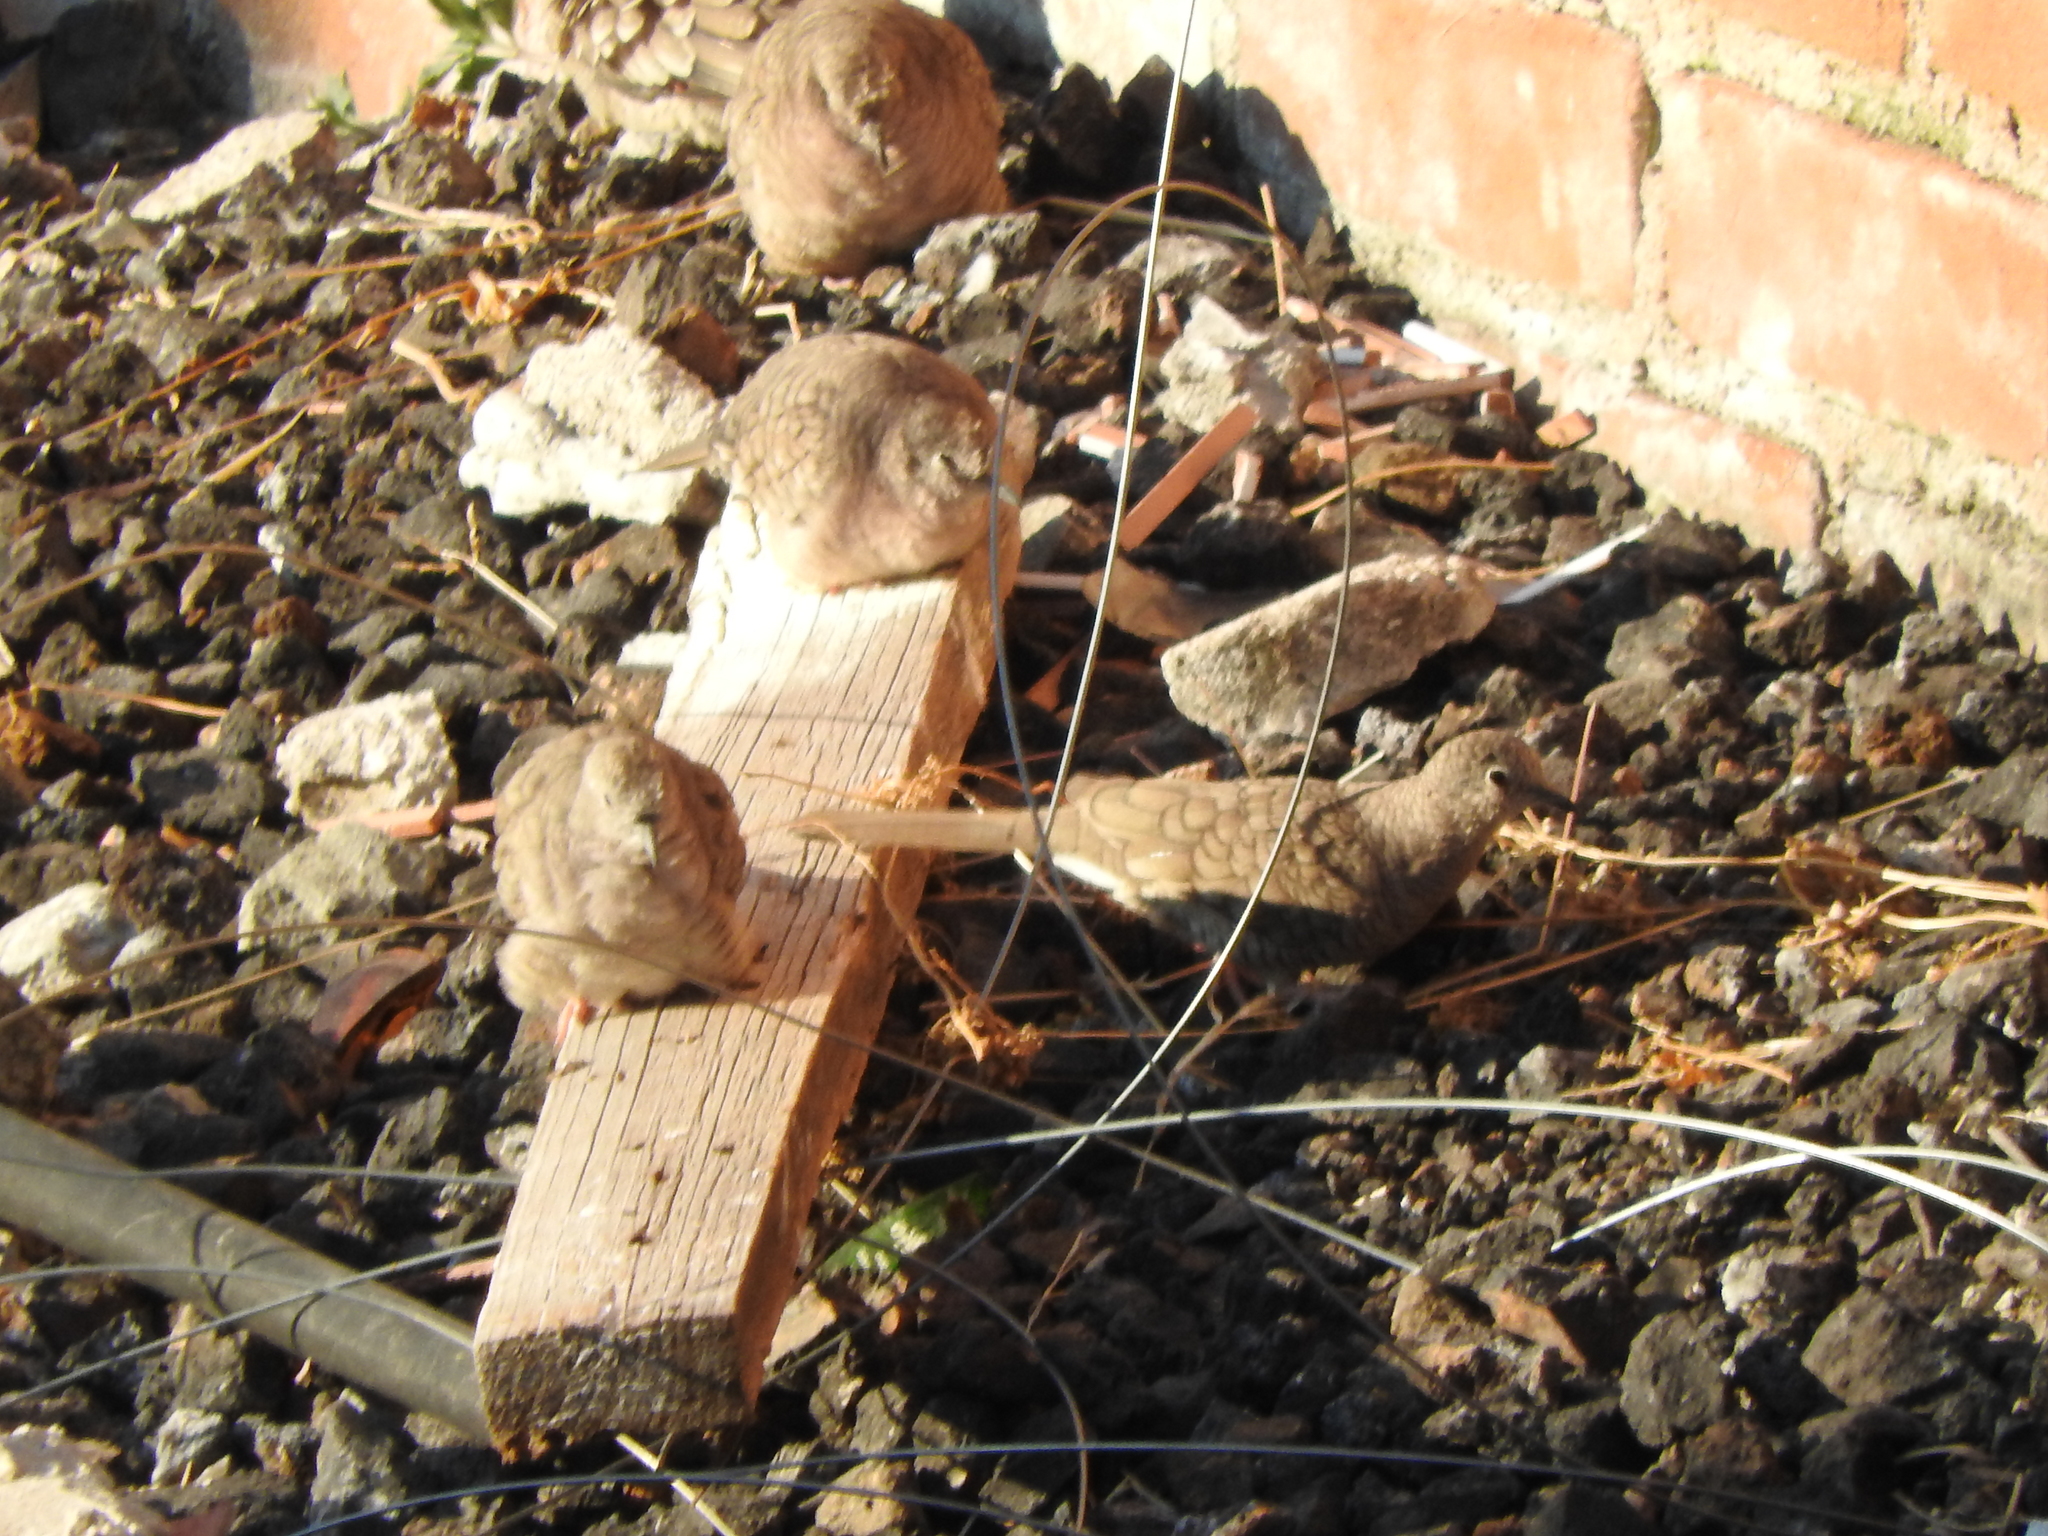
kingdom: Animalia
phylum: Chordata
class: Aves
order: Columbiformes
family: Columbidae
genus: Columbina
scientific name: Columbina inca
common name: Inca dove
